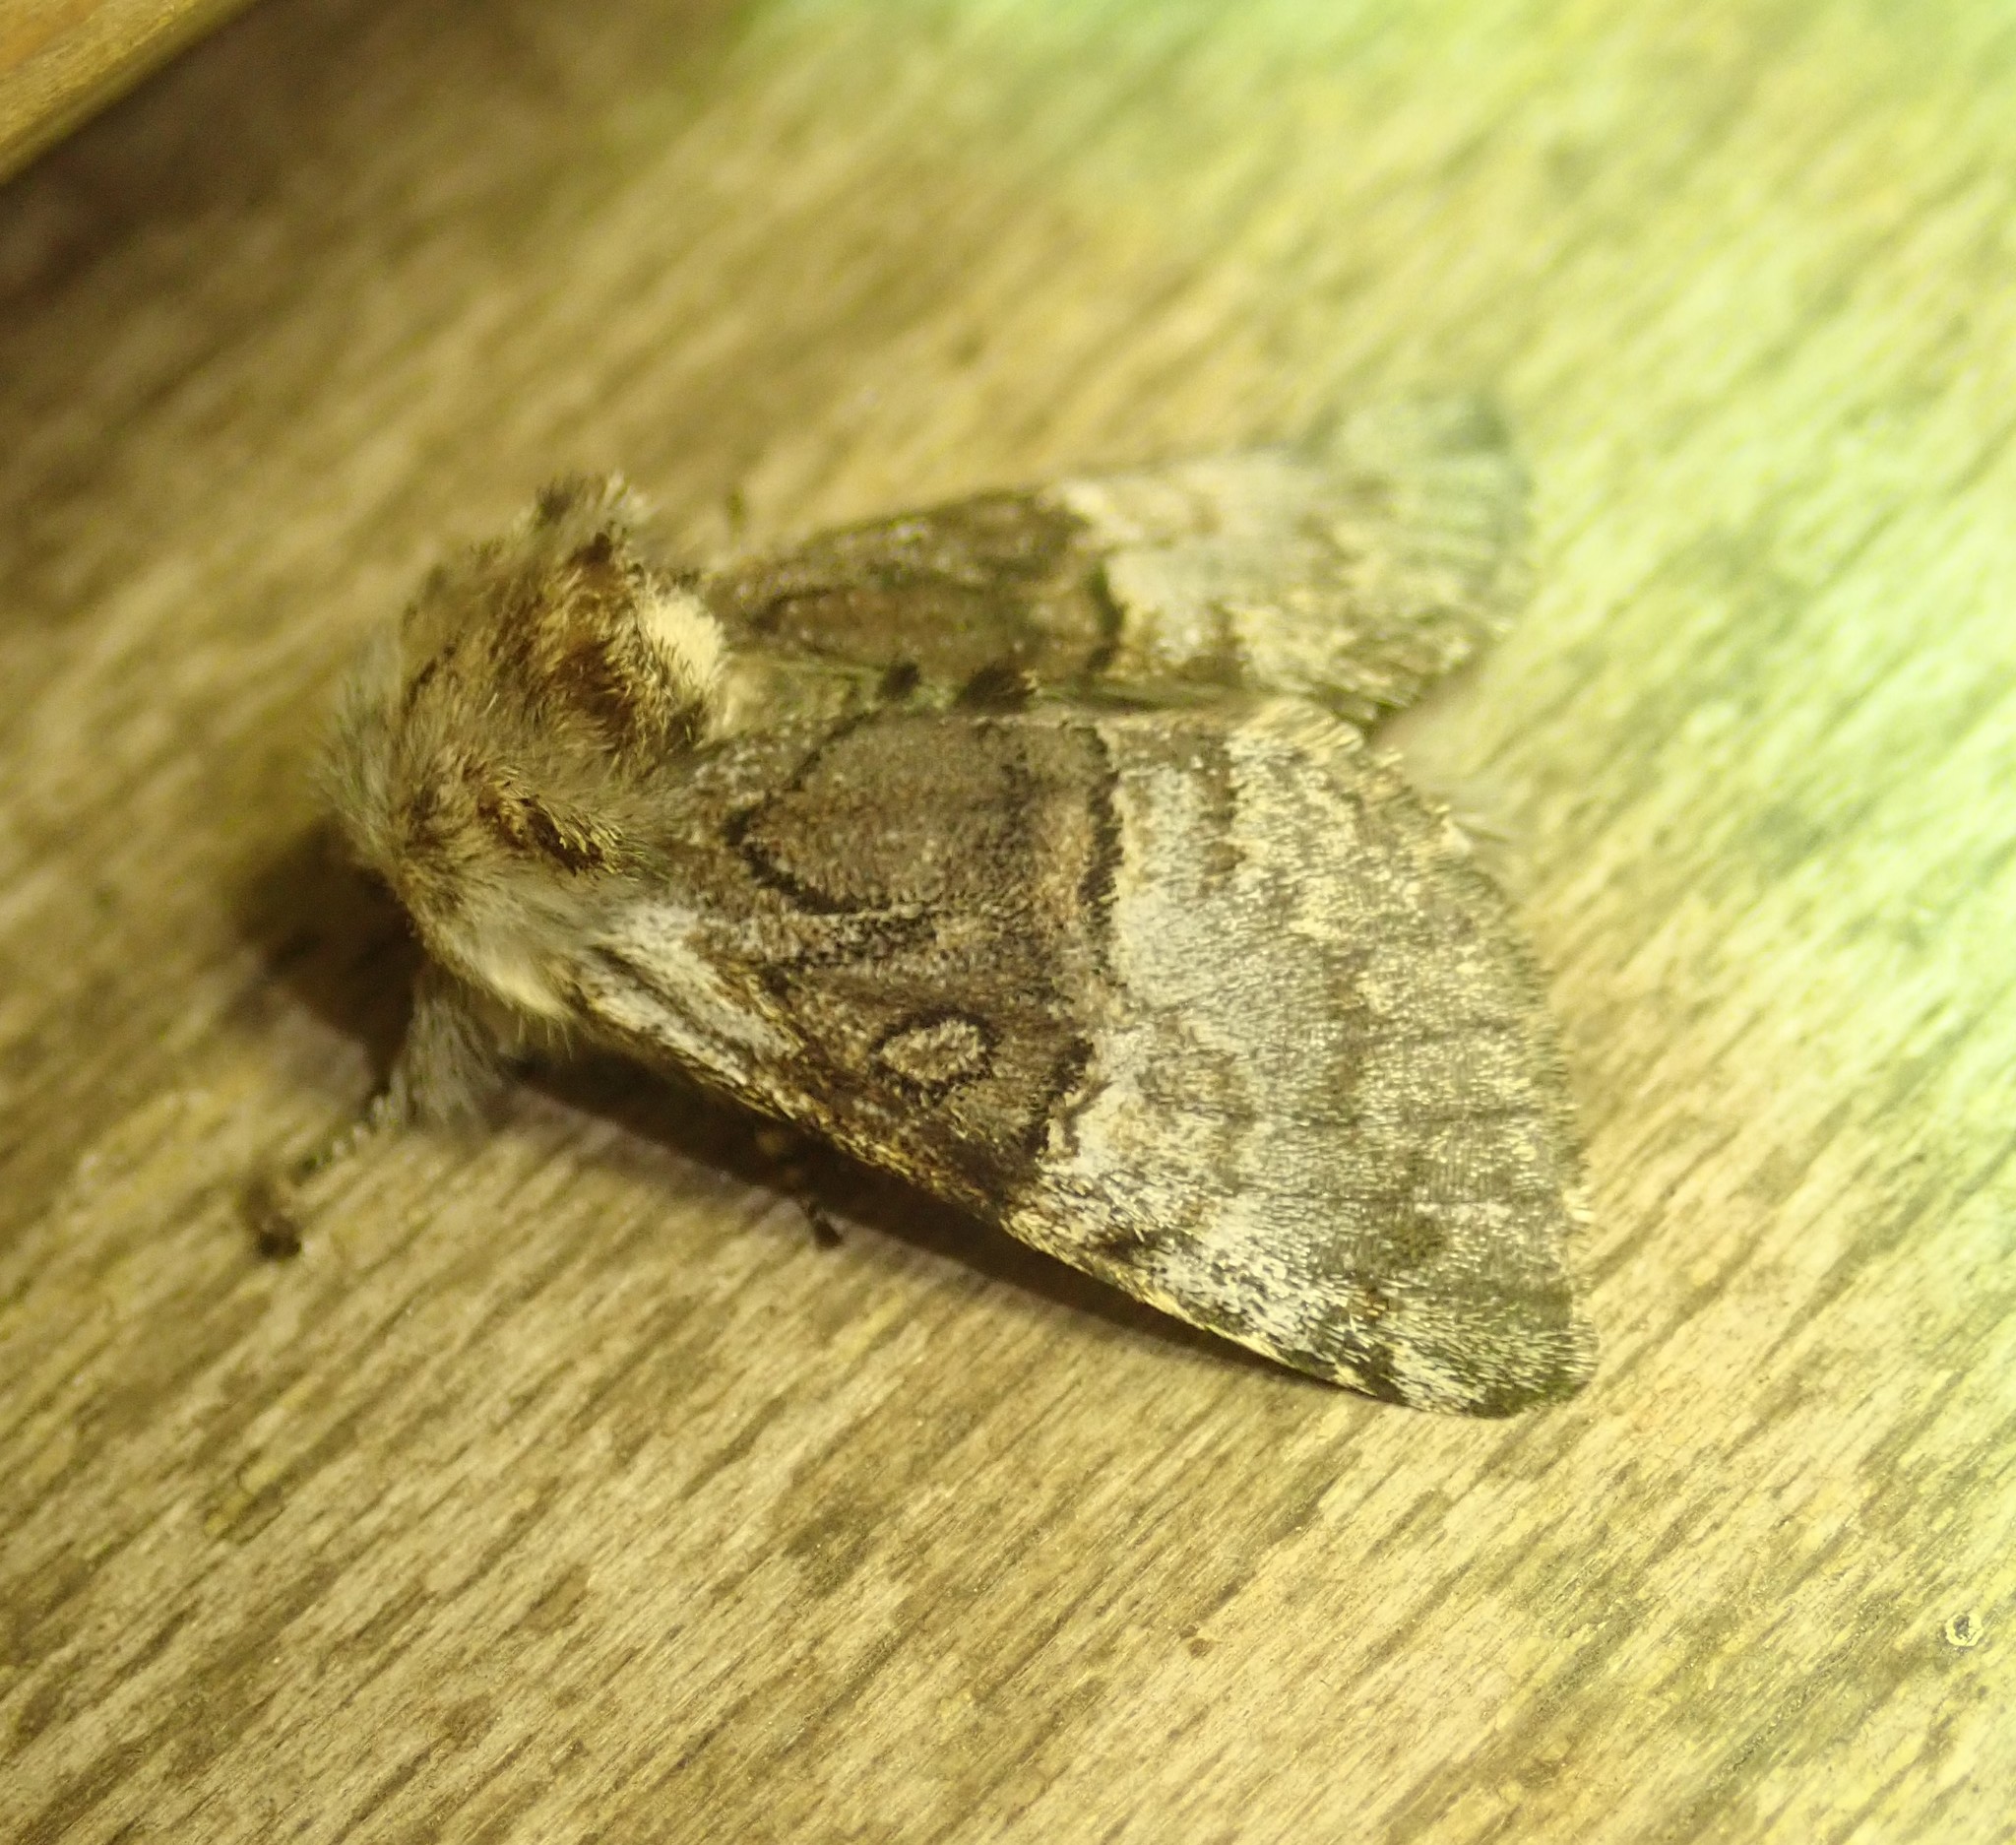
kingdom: Animalia
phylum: Arthropoda
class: Insecta
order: Lepidoptera
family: Noctuidae
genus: Colocasia
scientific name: Colocasia coryli
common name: Nut-tree tussock
